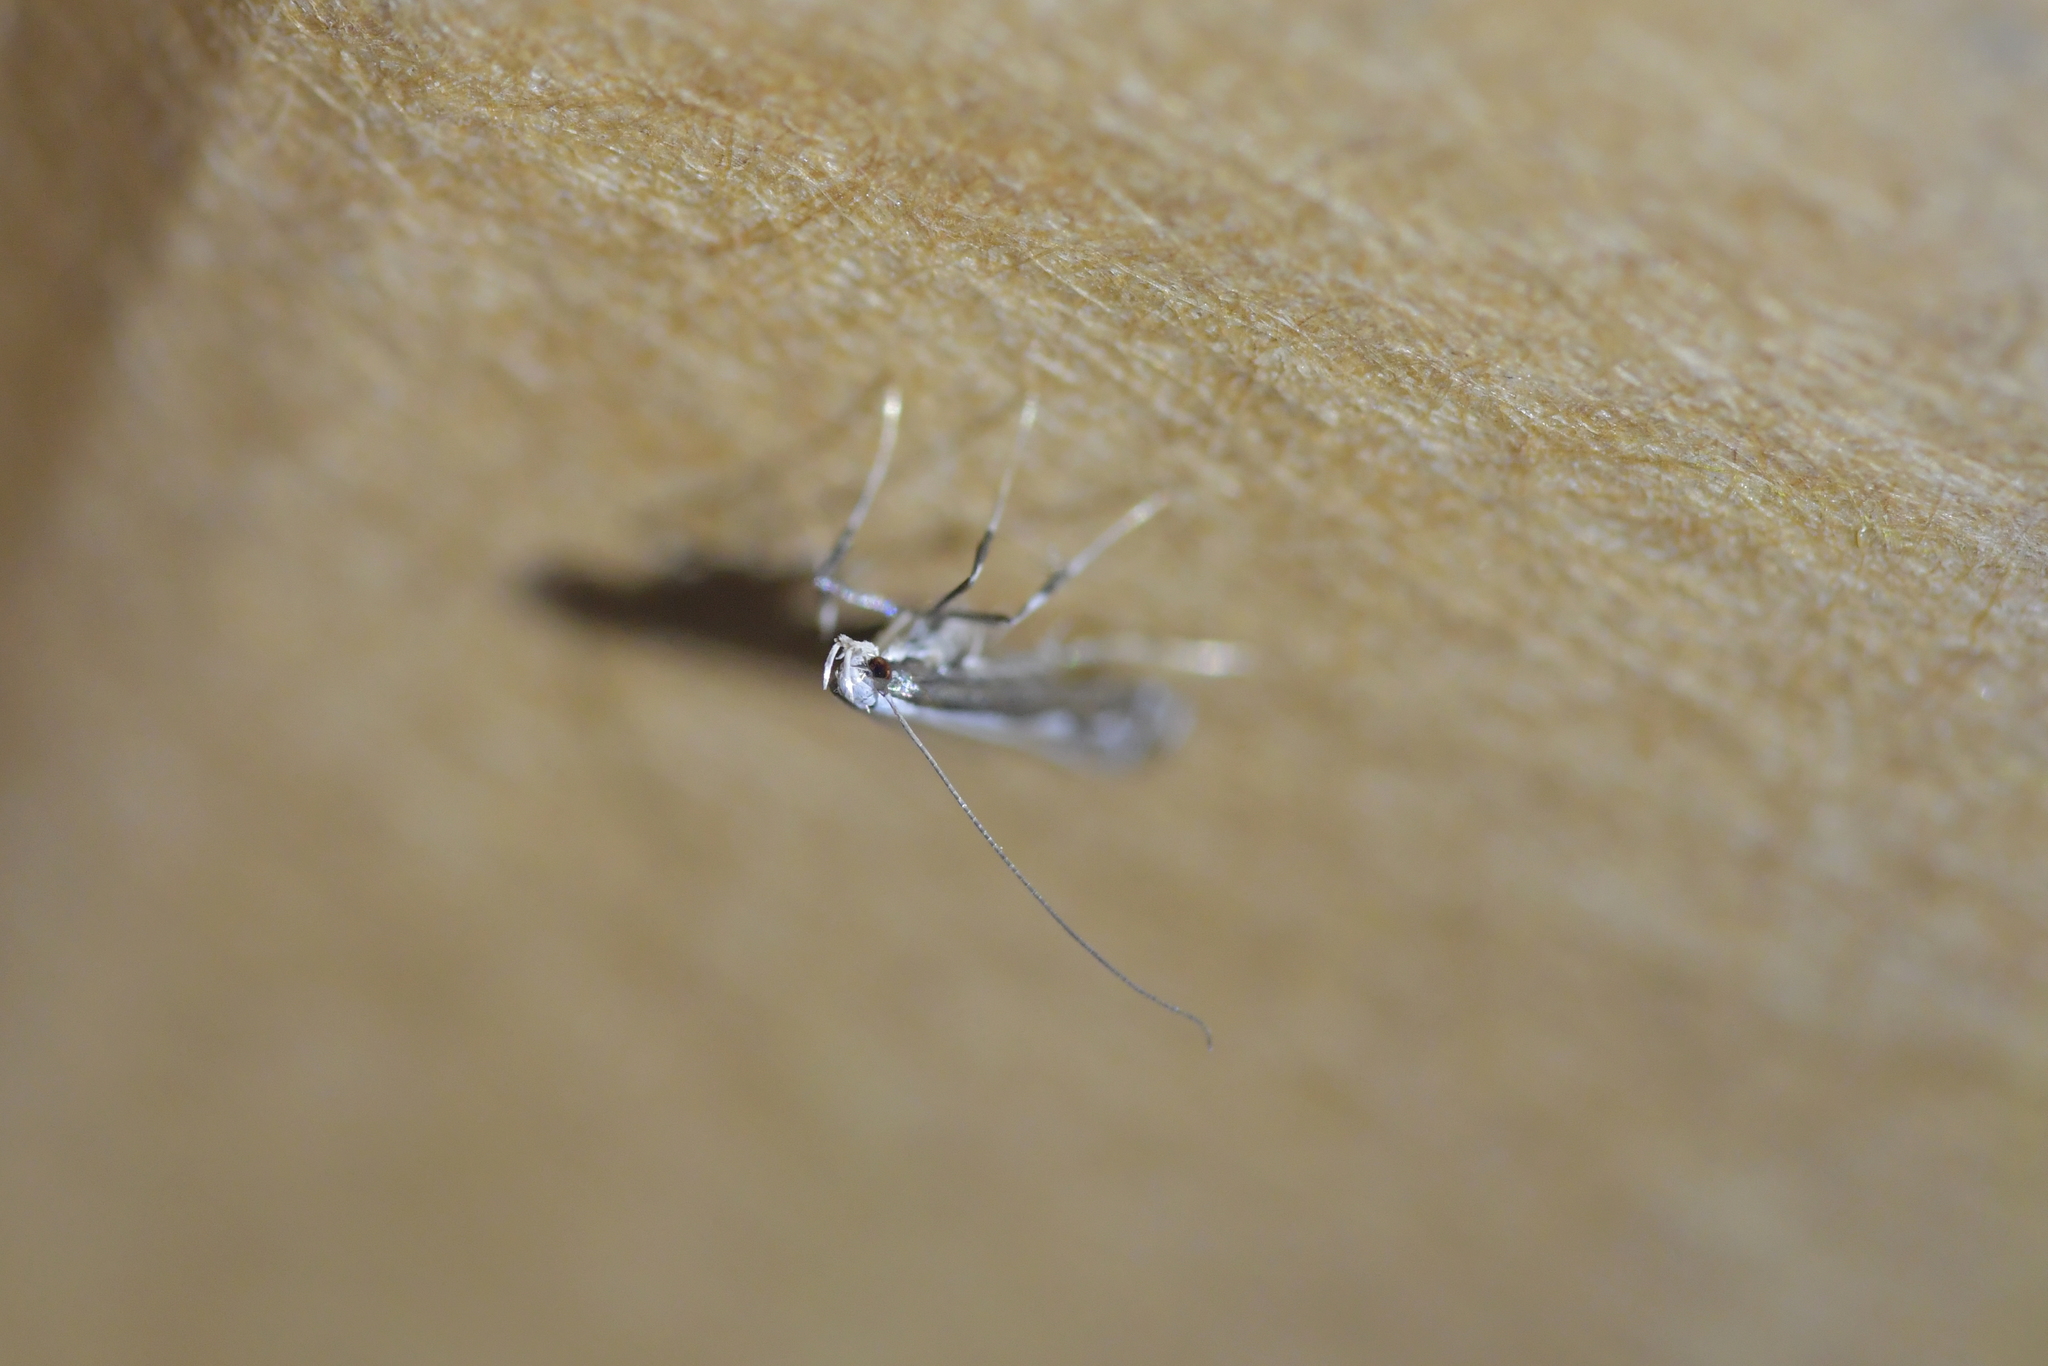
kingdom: Animalia
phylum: Arthropoda
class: Insecta
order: Lepidoptera
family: Gracillariidae
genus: Dialectica
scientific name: Dialectica scalariella
